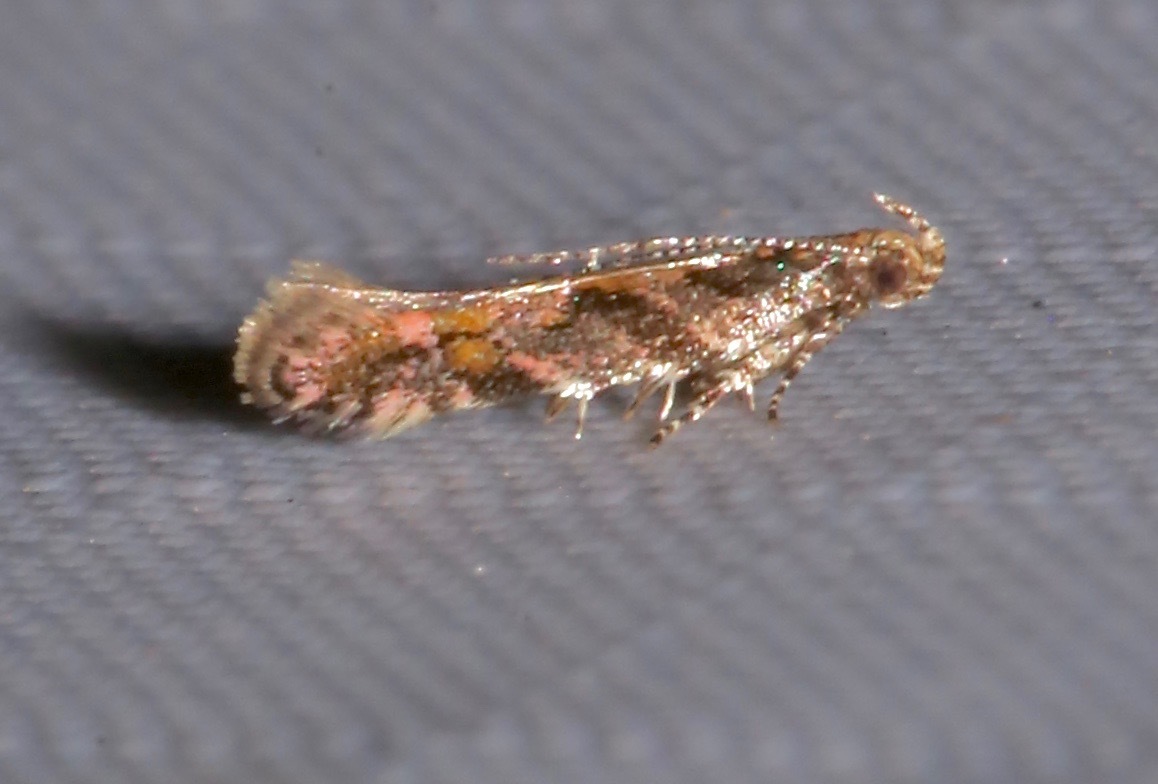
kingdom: Animalia
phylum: Arthropoda
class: Insecta
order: Lepidoptera
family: Gelechiidae
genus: Aristotelia
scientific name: Aristotelia rubidella
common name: Ruby aristotelia moth
